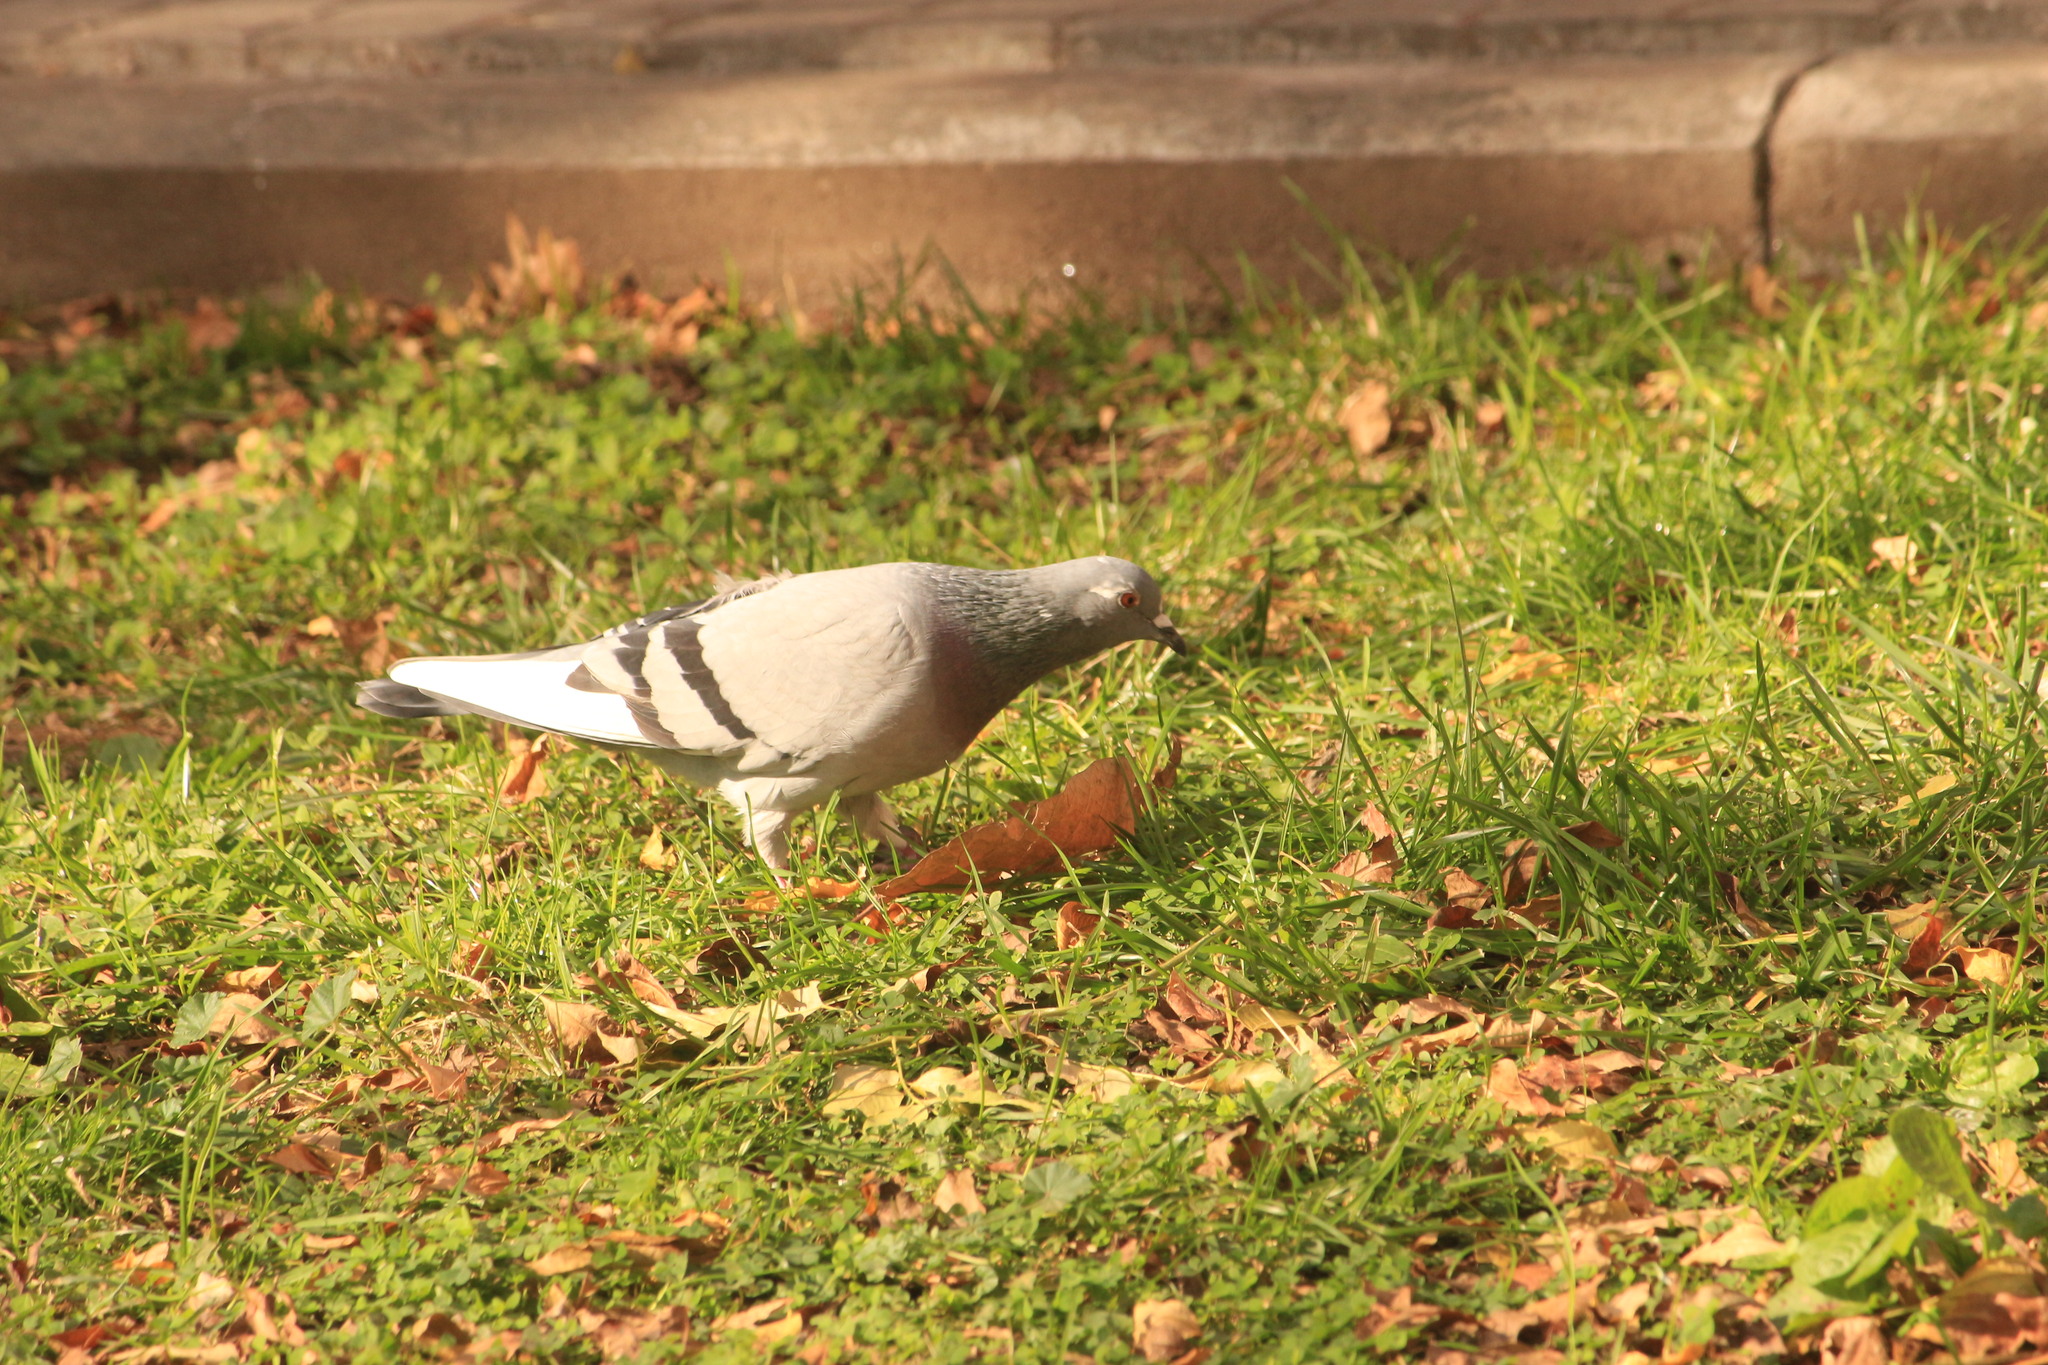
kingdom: Animalia
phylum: Chordata
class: Aves
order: Columbiformes
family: Columbidae
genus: Columba
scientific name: Columba livia
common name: Rock pigeon
